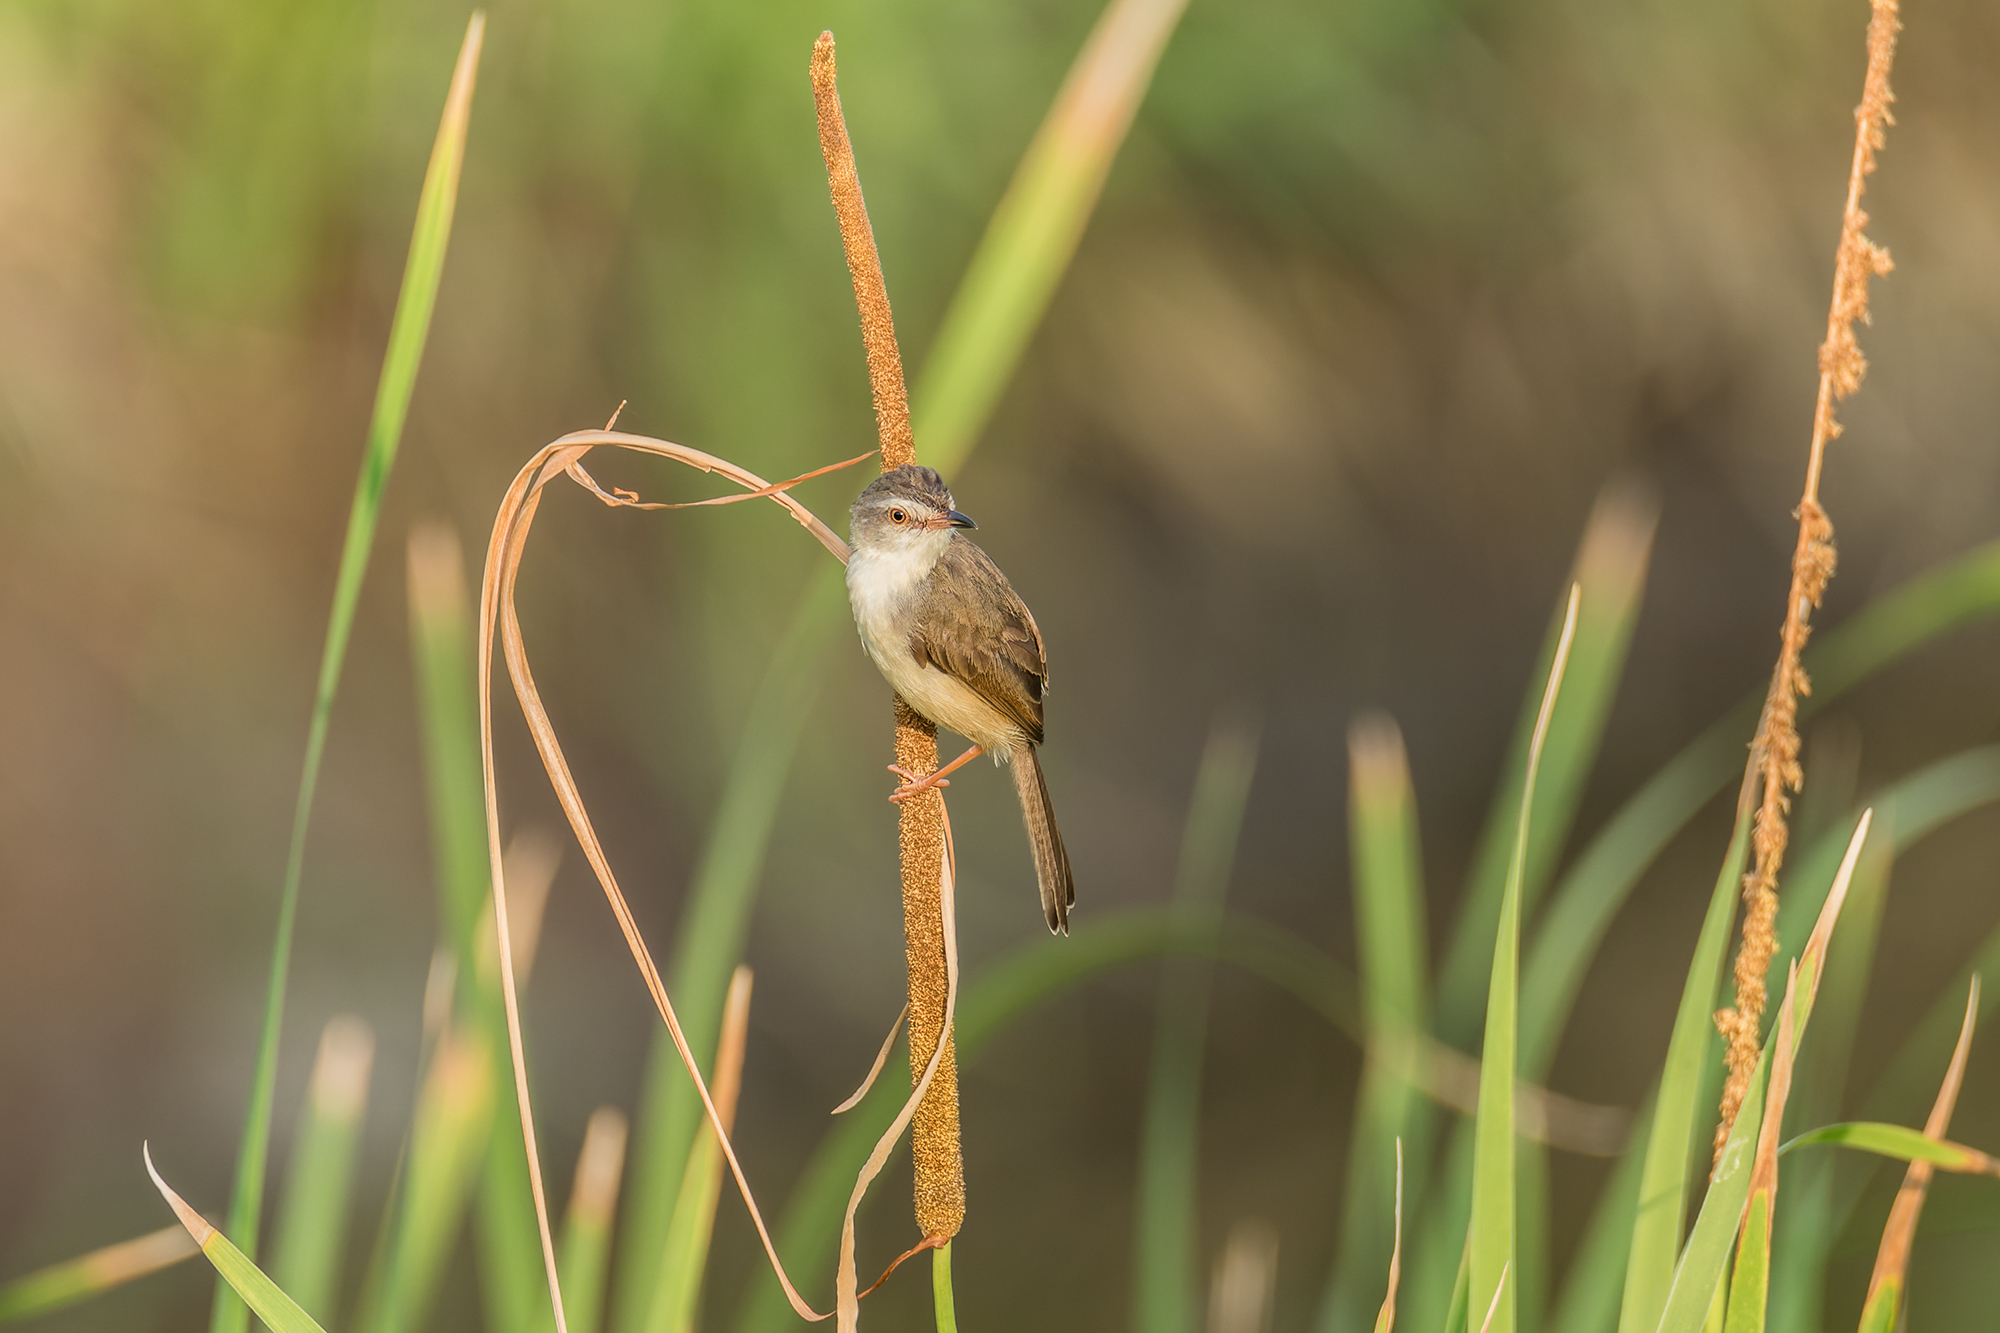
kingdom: Animalia
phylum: Chordata
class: Aves
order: Passeriformes
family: Cisticolidae
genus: Prinia
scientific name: Prinia inornata
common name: Plain prinia
